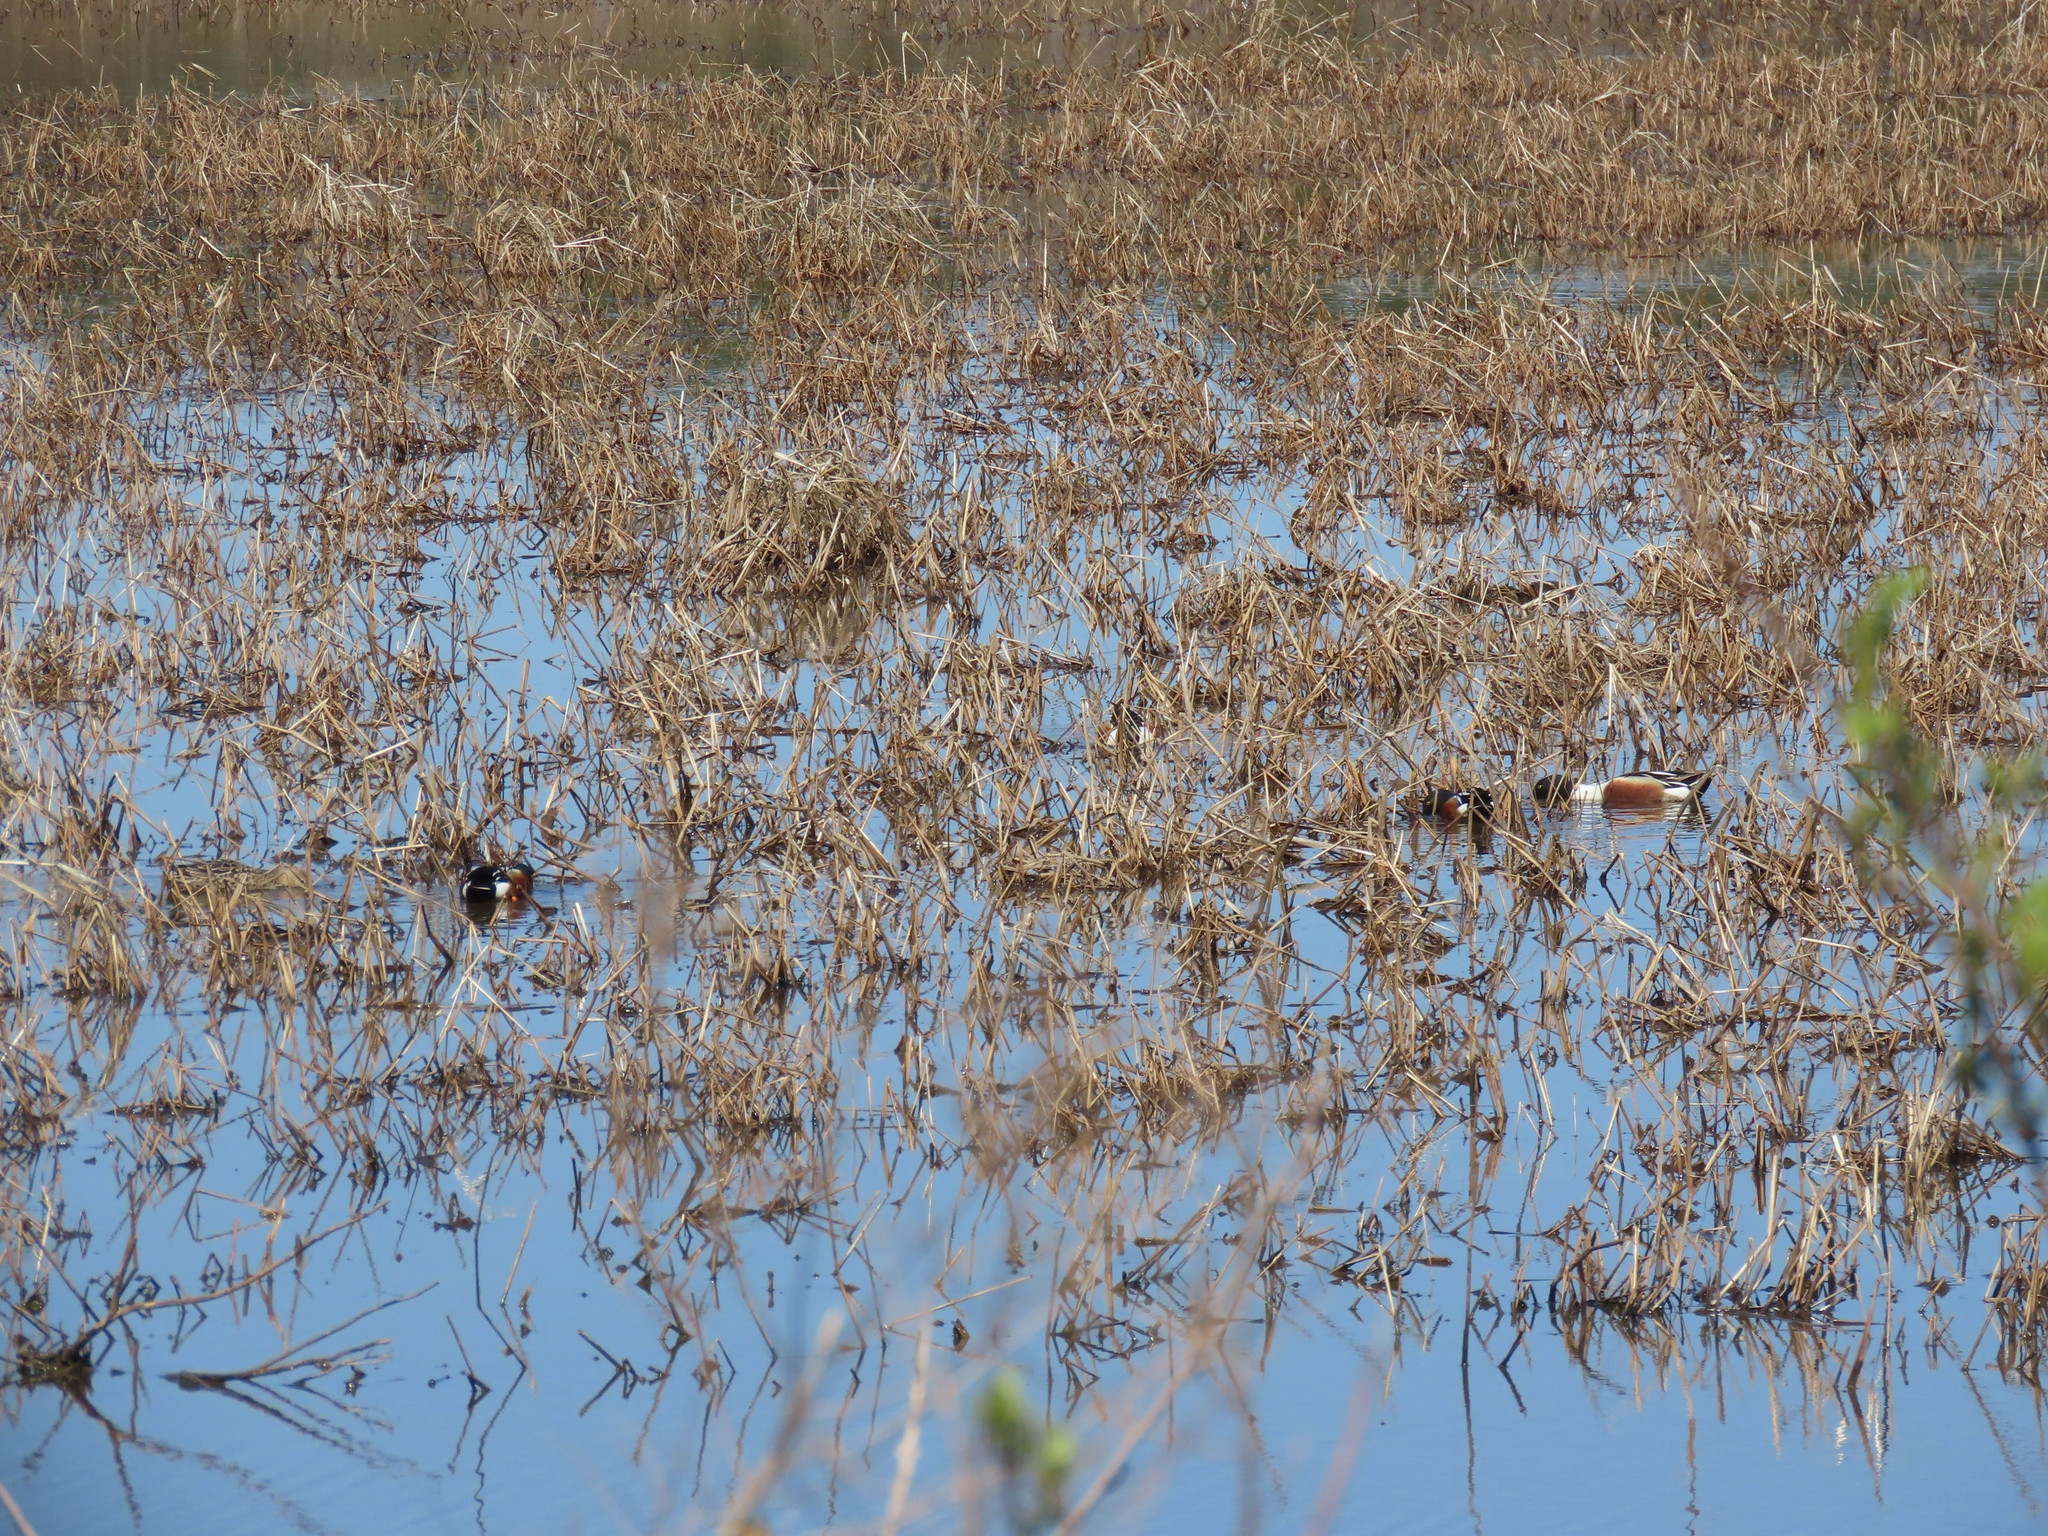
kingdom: Animalia
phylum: Chordata
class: Aves
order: Anseriformes
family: Anatidae
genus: Spatula
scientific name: Spatula clypeata
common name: Northern shoveler
